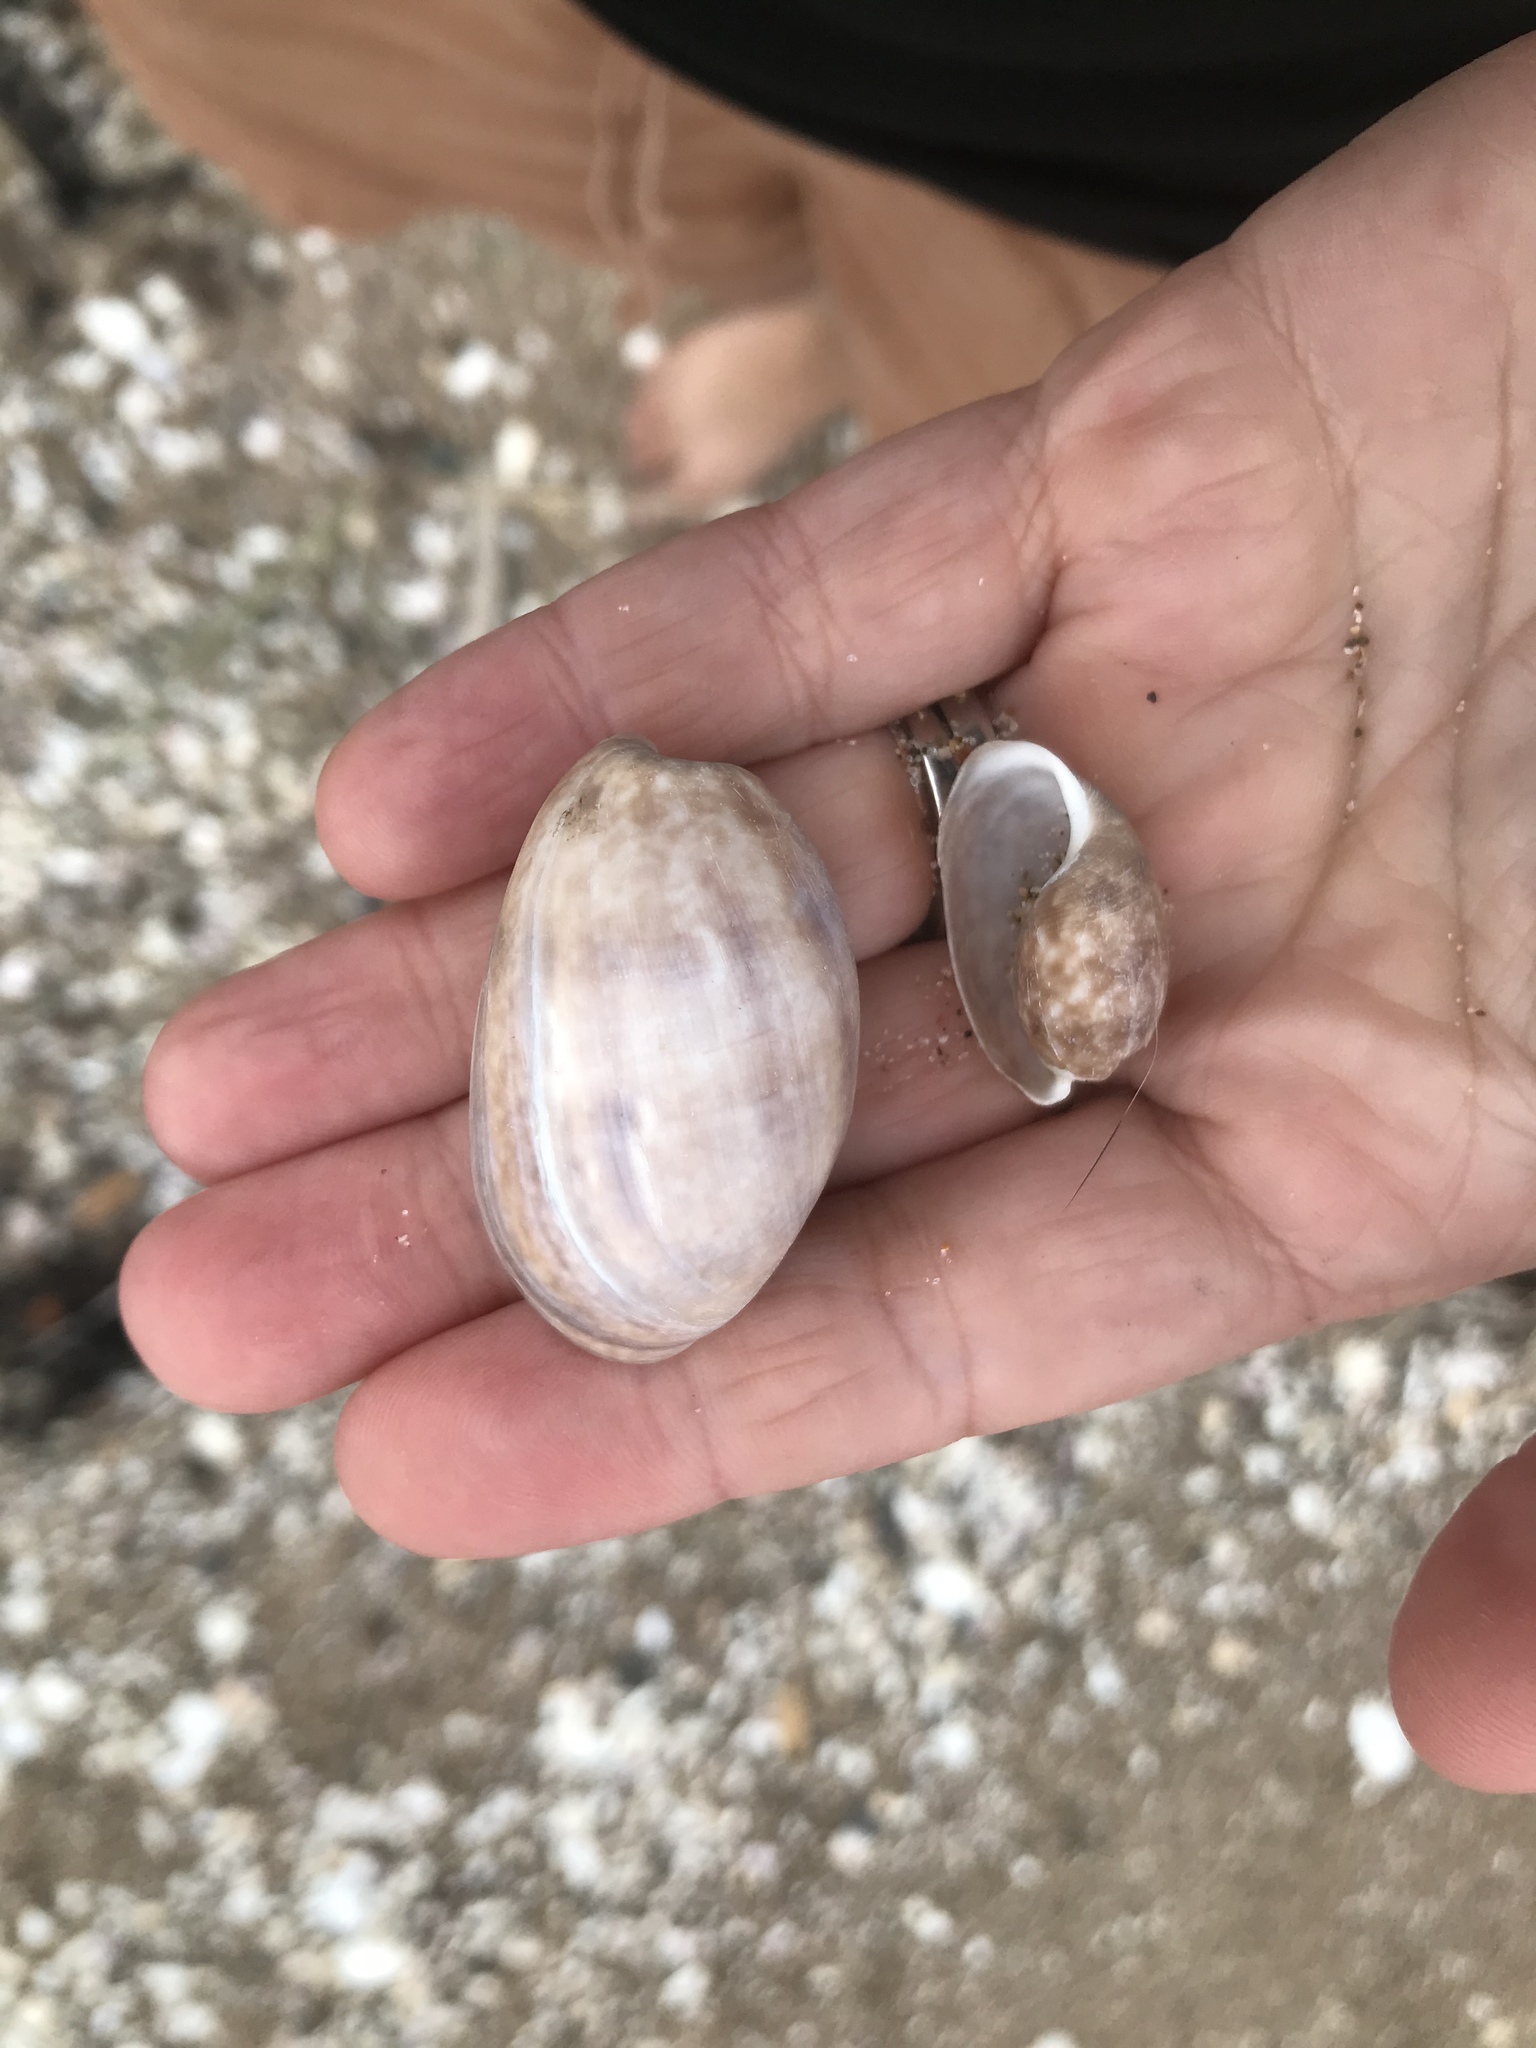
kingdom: Animalia
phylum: Mollusca
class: Gastropoda
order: Cephalaspidea
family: Bullidae
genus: Bulla
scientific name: Bulla quoyii
